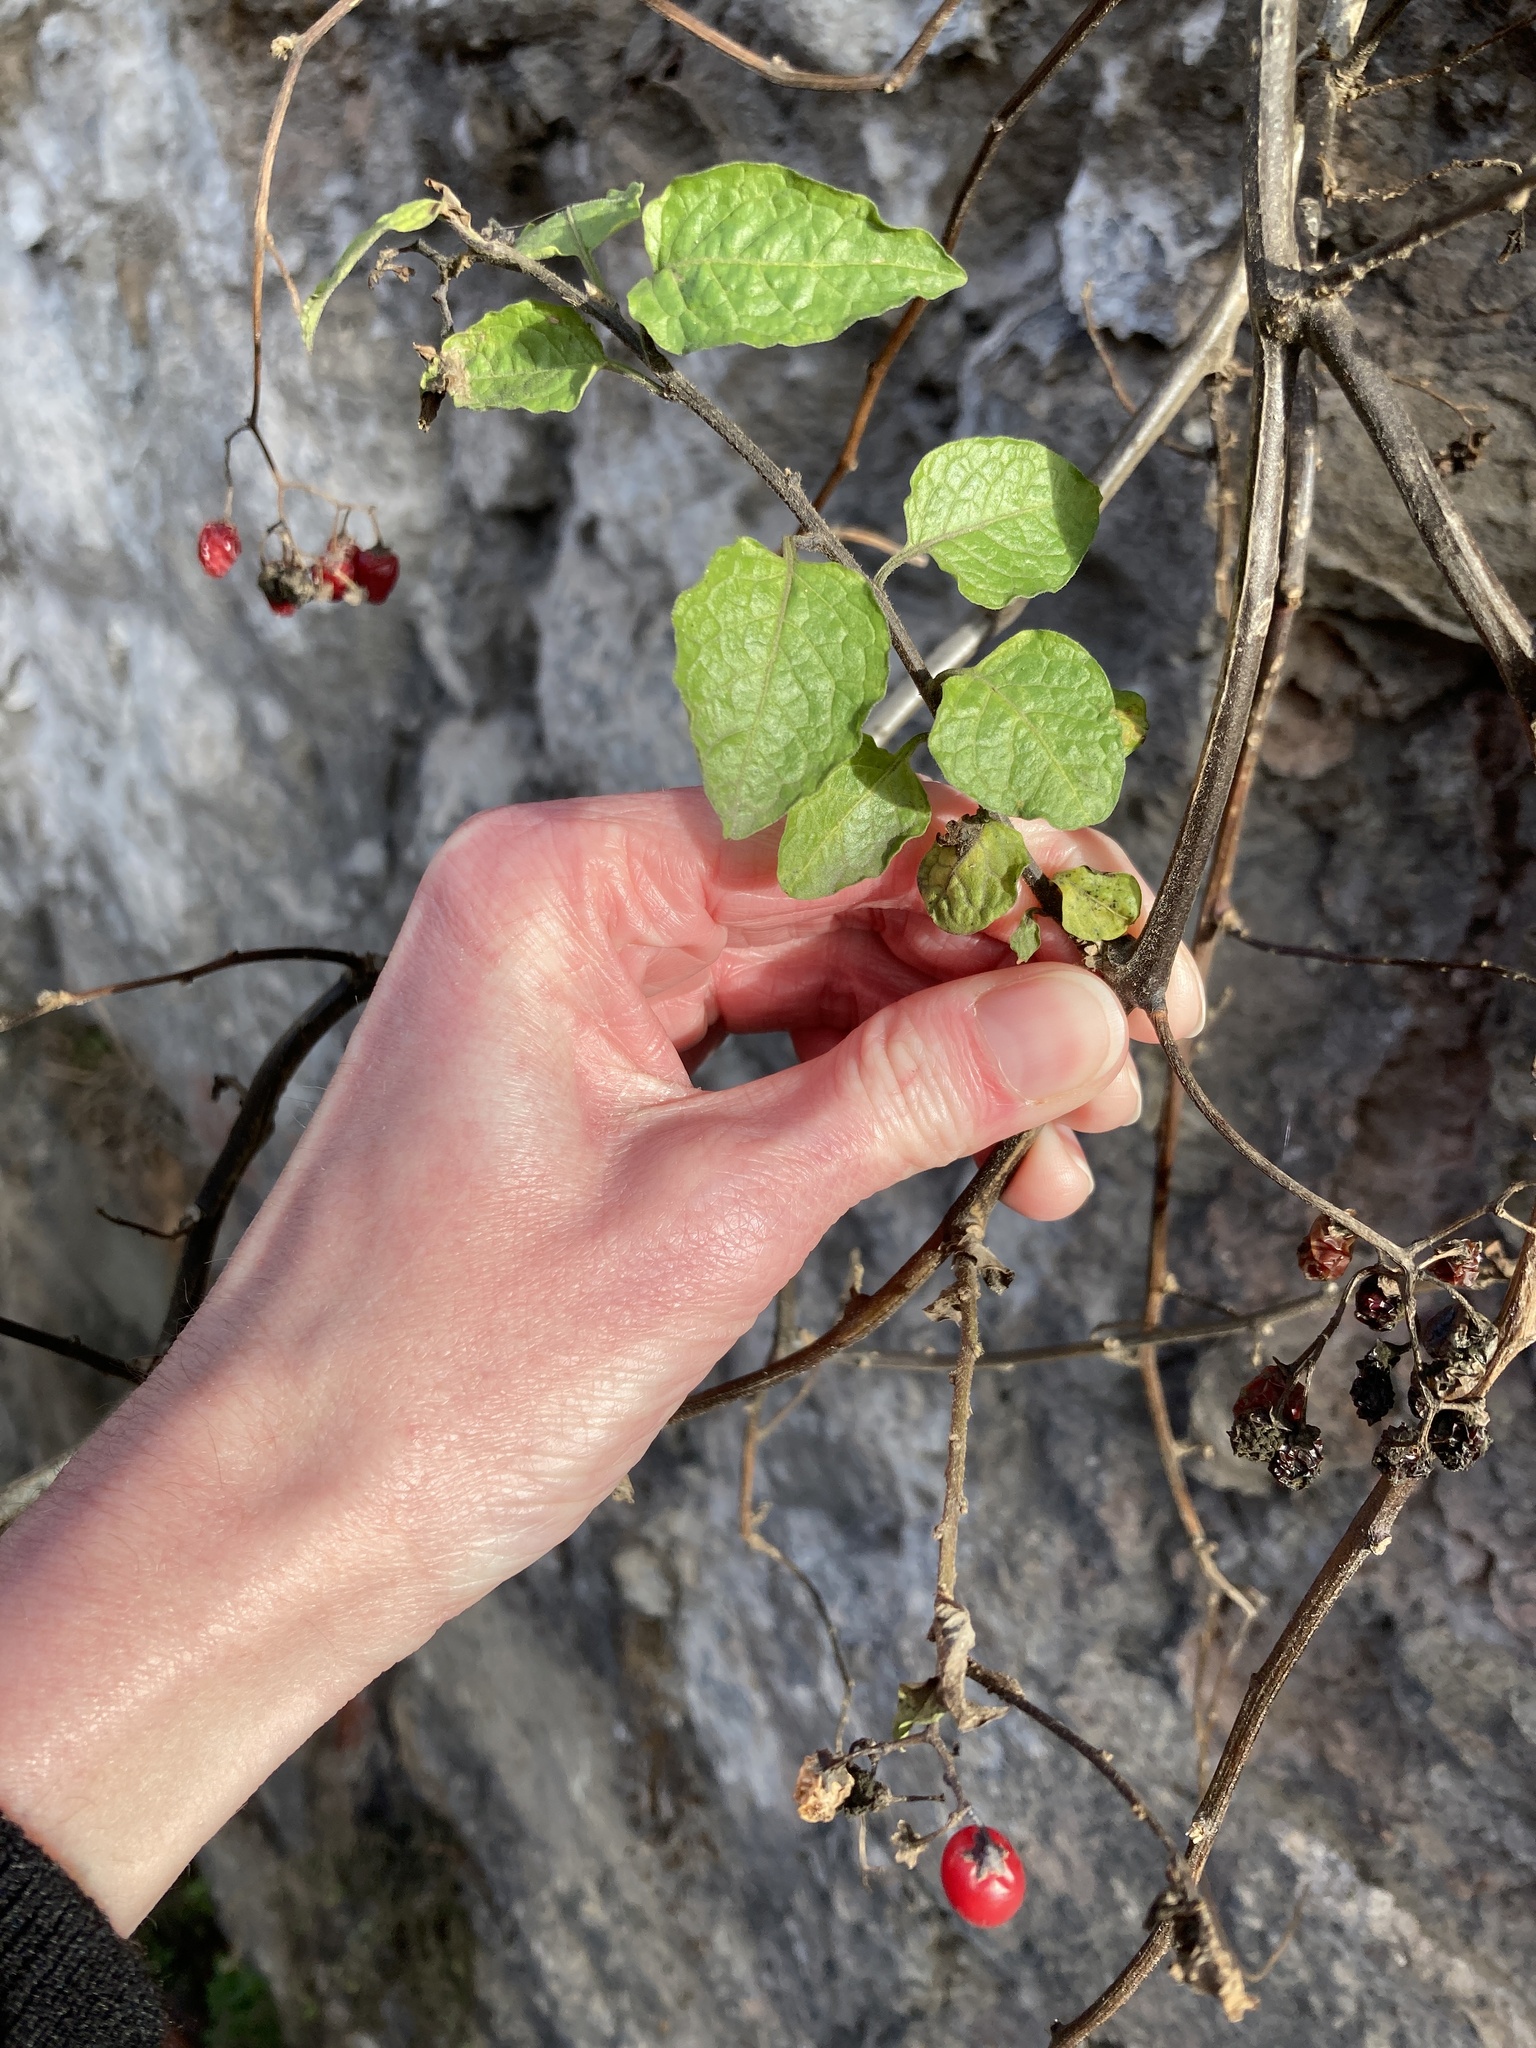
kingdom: Plantae
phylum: Tracheophyta
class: Magnoliopsida
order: Solanales
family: Solanaceae
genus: Solanum
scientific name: Solanum dulcamara
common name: Climbing nightshade
